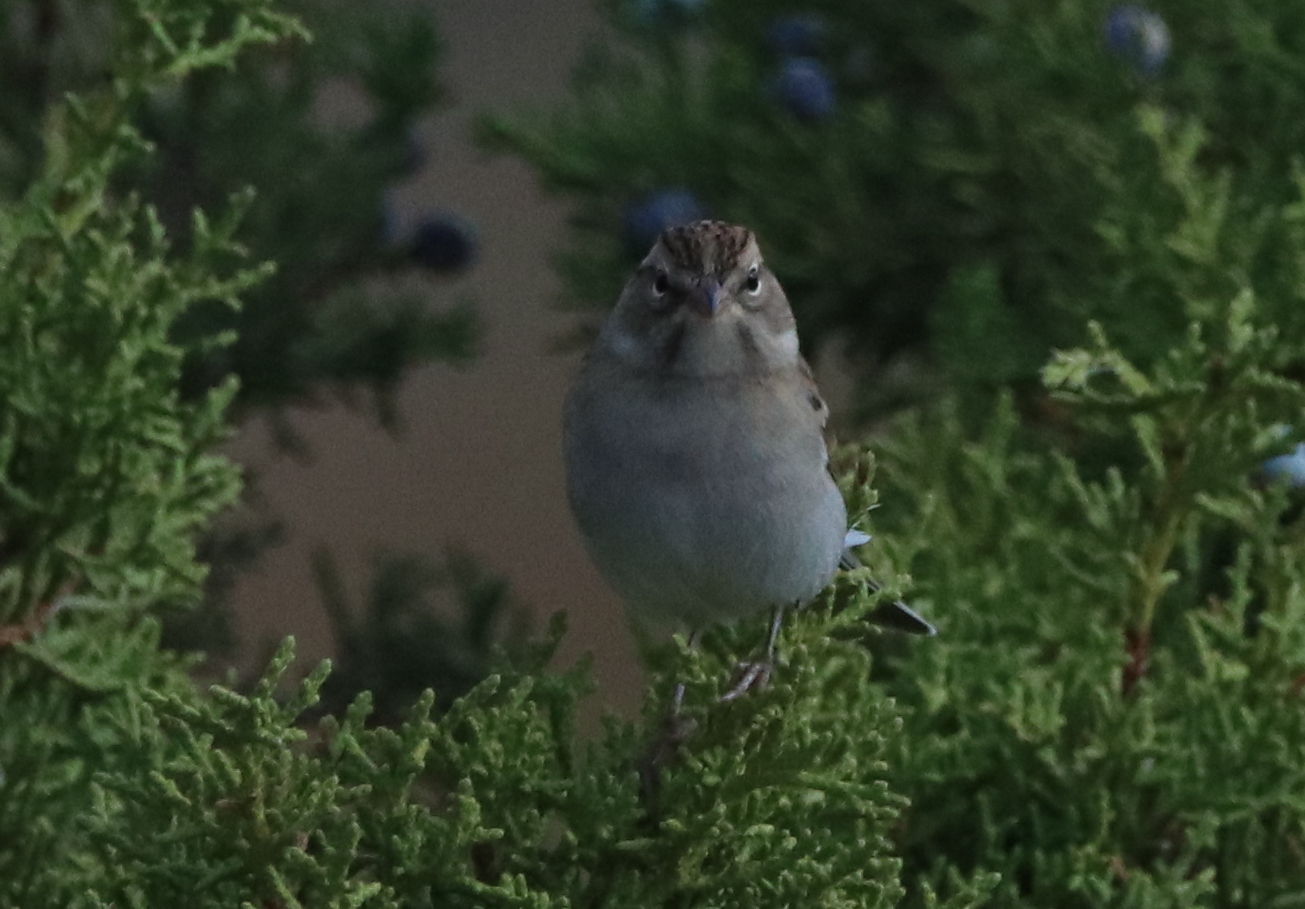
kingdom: Animalia
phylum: Chordata
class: Aves
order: Passeriformes
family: Passerellidae
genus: Spizella
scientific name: Spizella passerina
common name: Chipping sparrow
